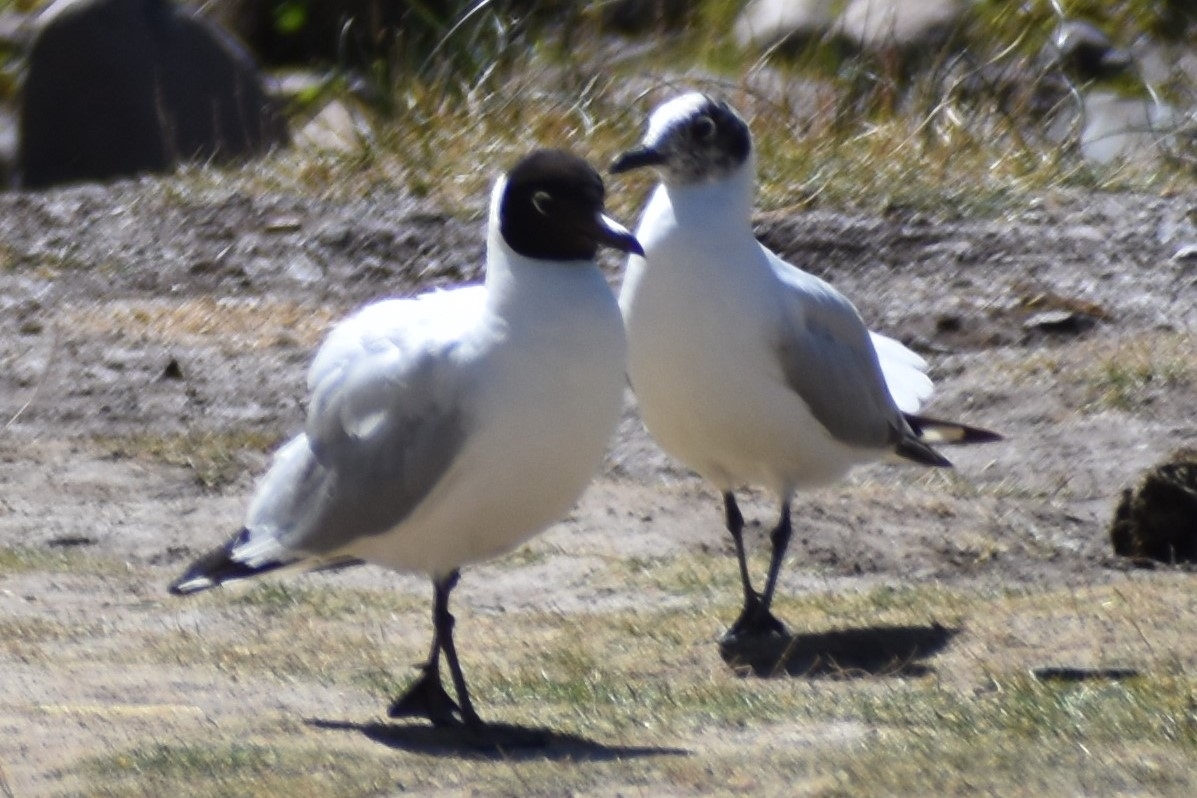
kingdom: Animalia
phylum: Chordata
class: Aves
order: Charadriiformes
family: Laridae
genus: Chroicocephalus
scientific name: Chroicocephalus serranus
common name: Andean gull
